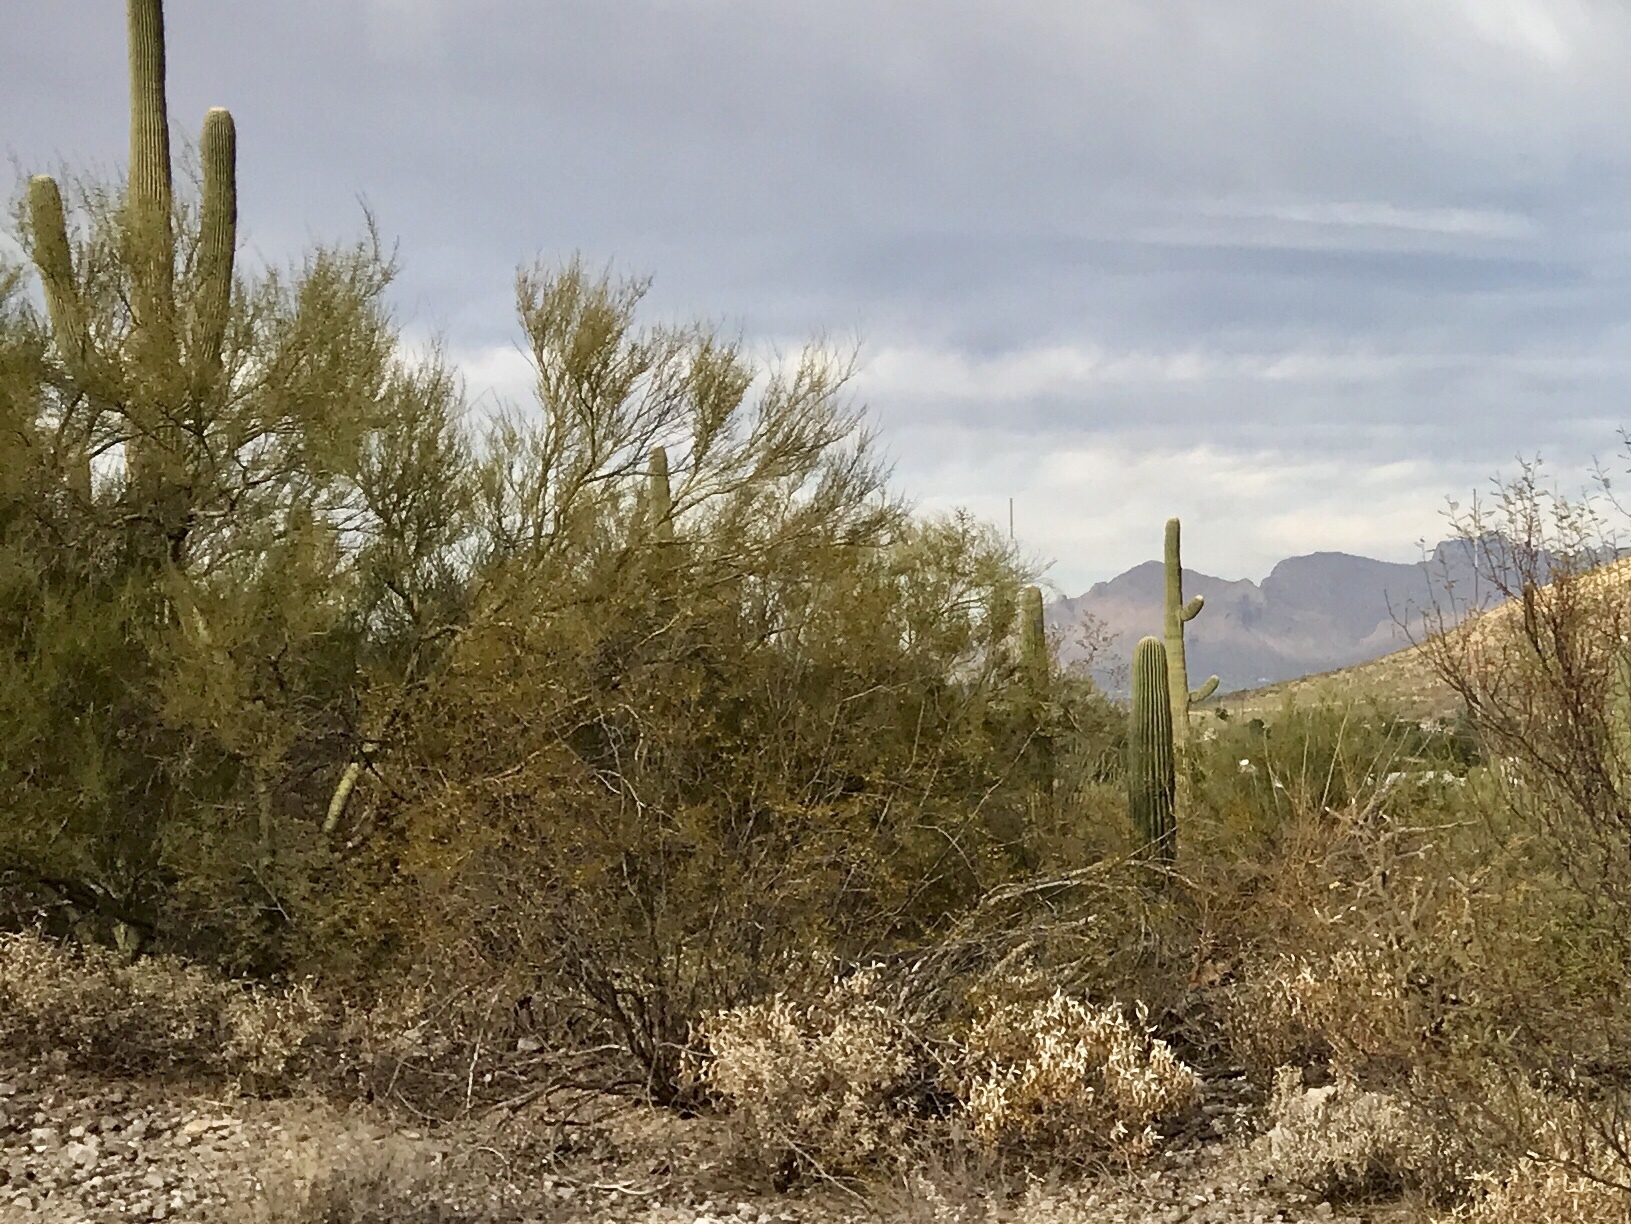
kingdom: Plantae
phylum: Tracheophyta
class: Magnoliopsida
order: Zygophyllales
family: Zygophyllaceae
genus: Larrea
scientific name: Larrea tridentata
